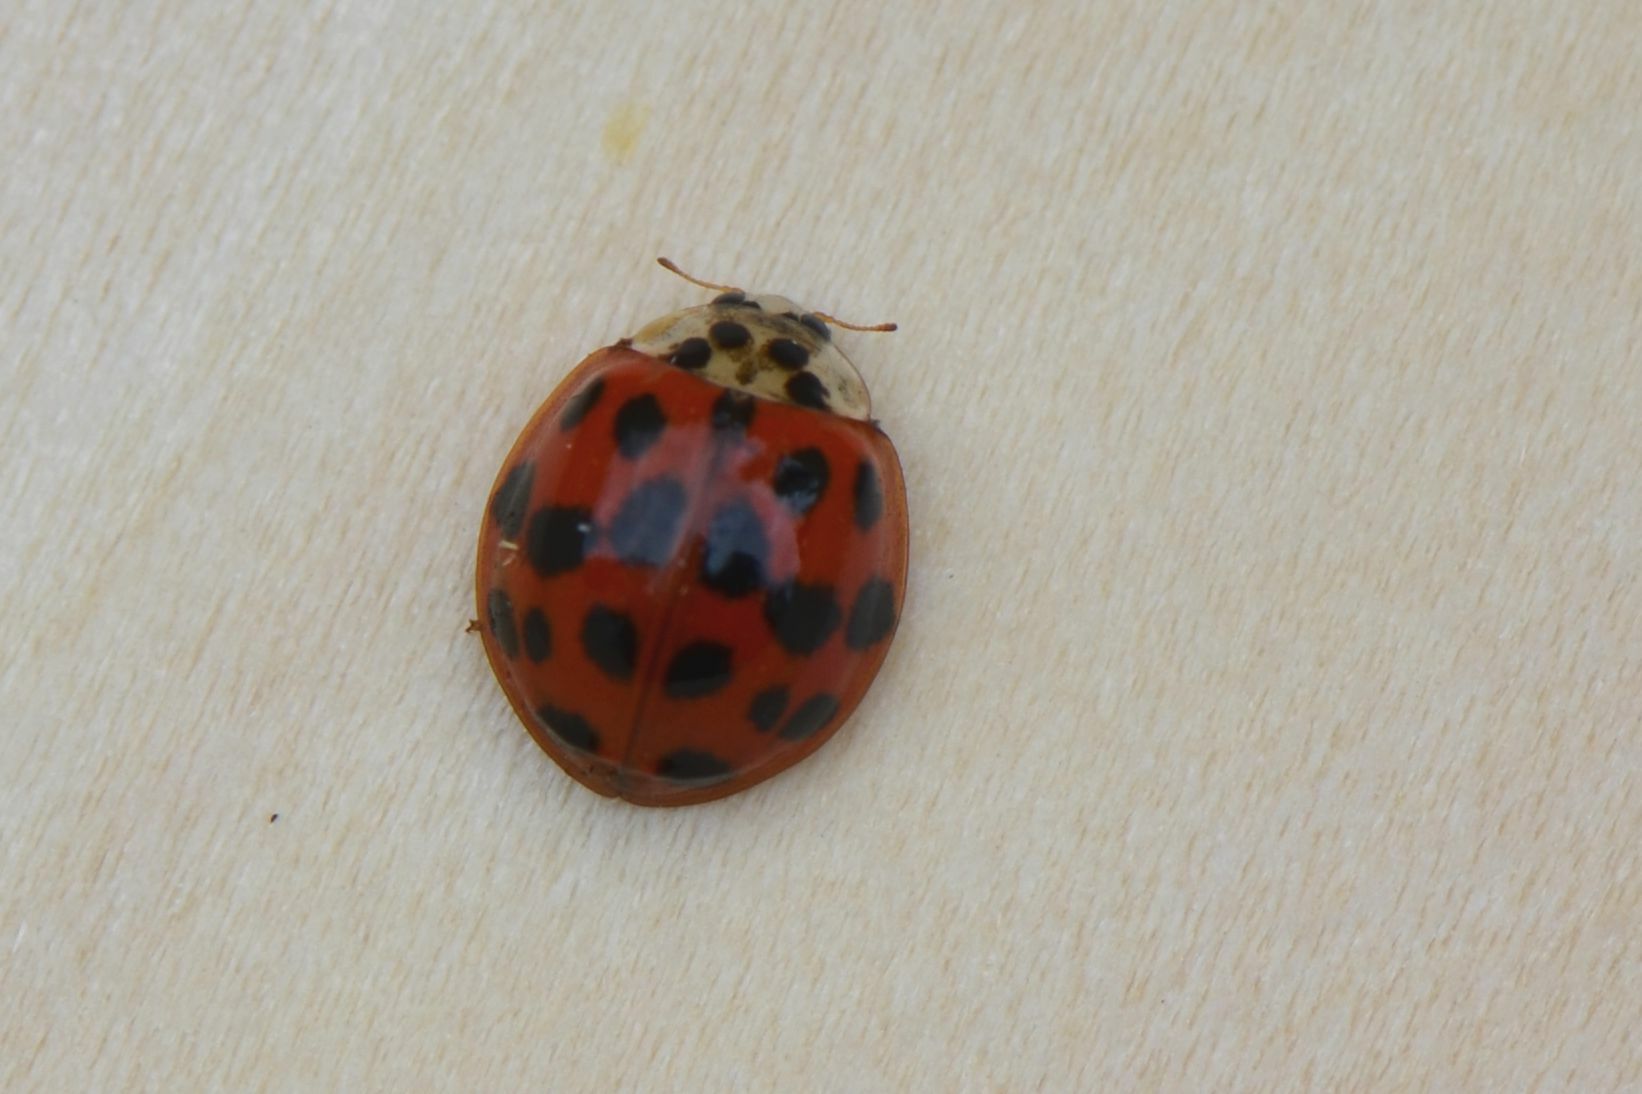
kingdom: Animalia
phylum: Arthropoda
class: Insecta
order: Coleoptera
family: Coccinellidae
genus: Harmonia
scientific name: Harmonia axyridis
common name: Harlequin ladybird
